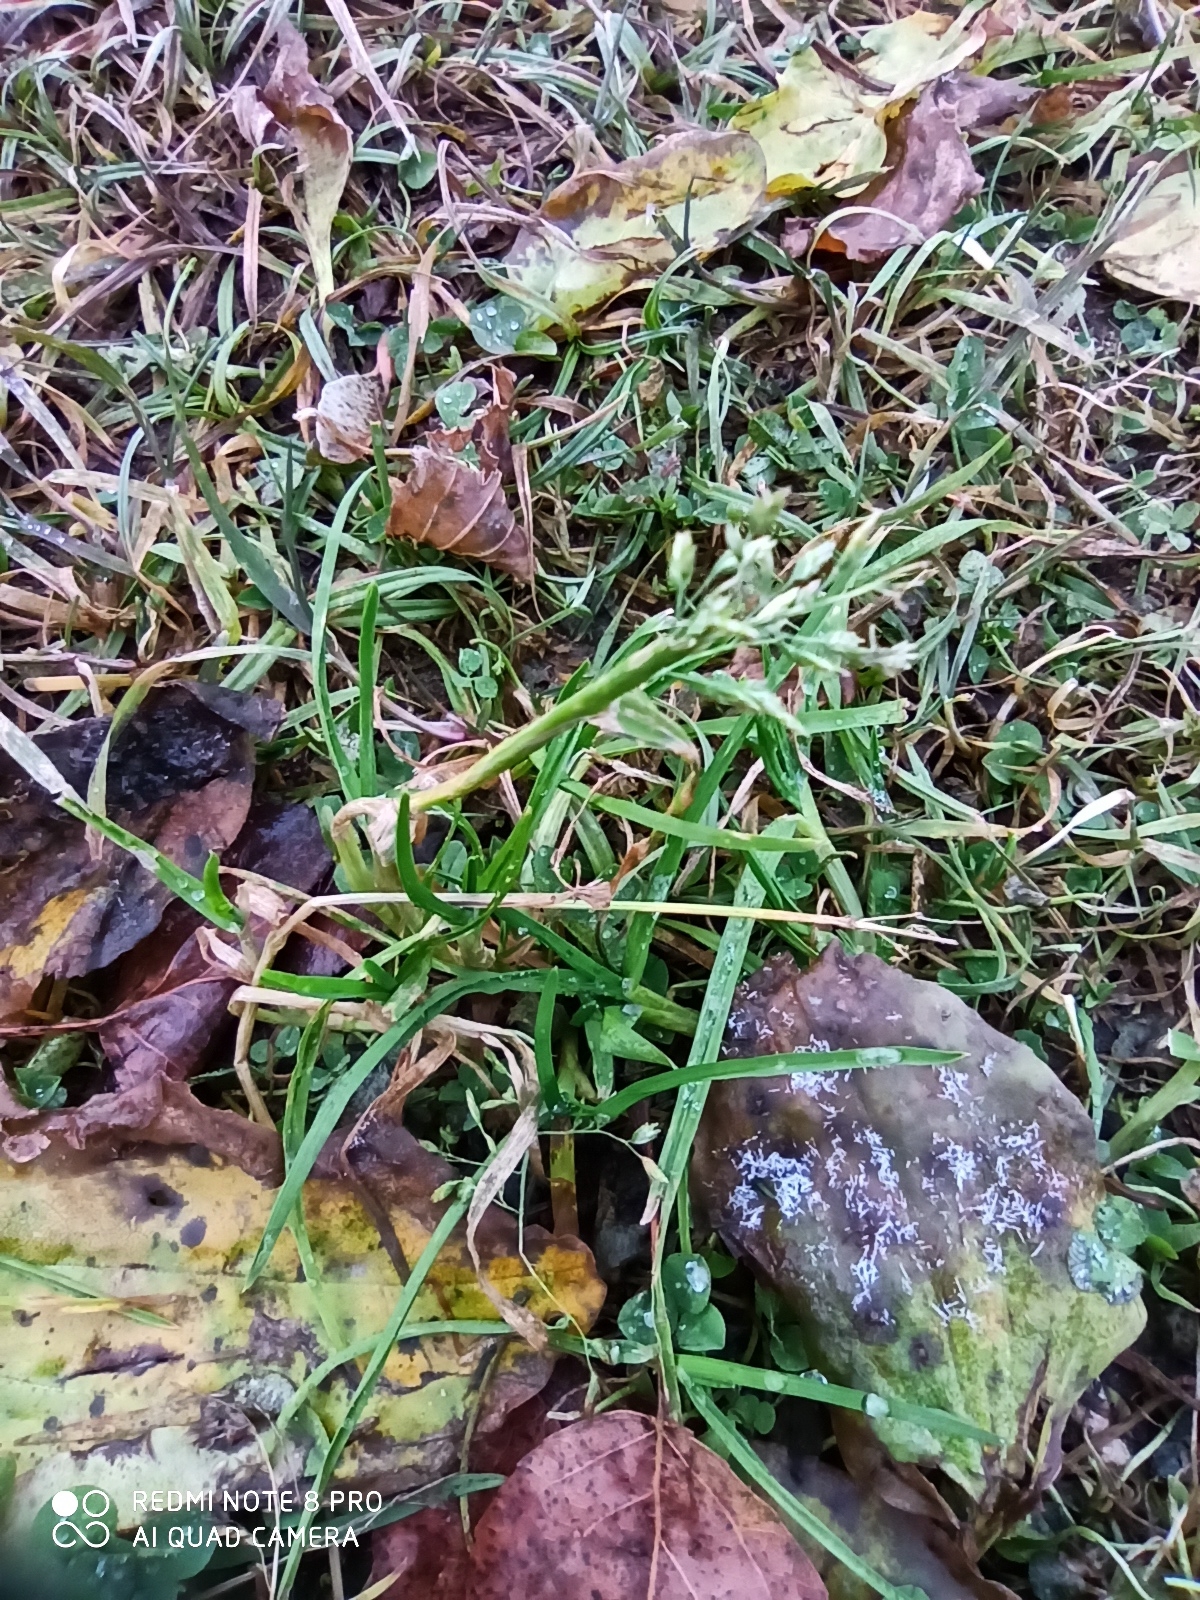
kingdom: Plantae
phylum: Tracheophyta
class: Liliopsida
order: Poales
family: Poaceae
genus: Poa
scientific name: Poa annua
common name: Annual bluegrass
